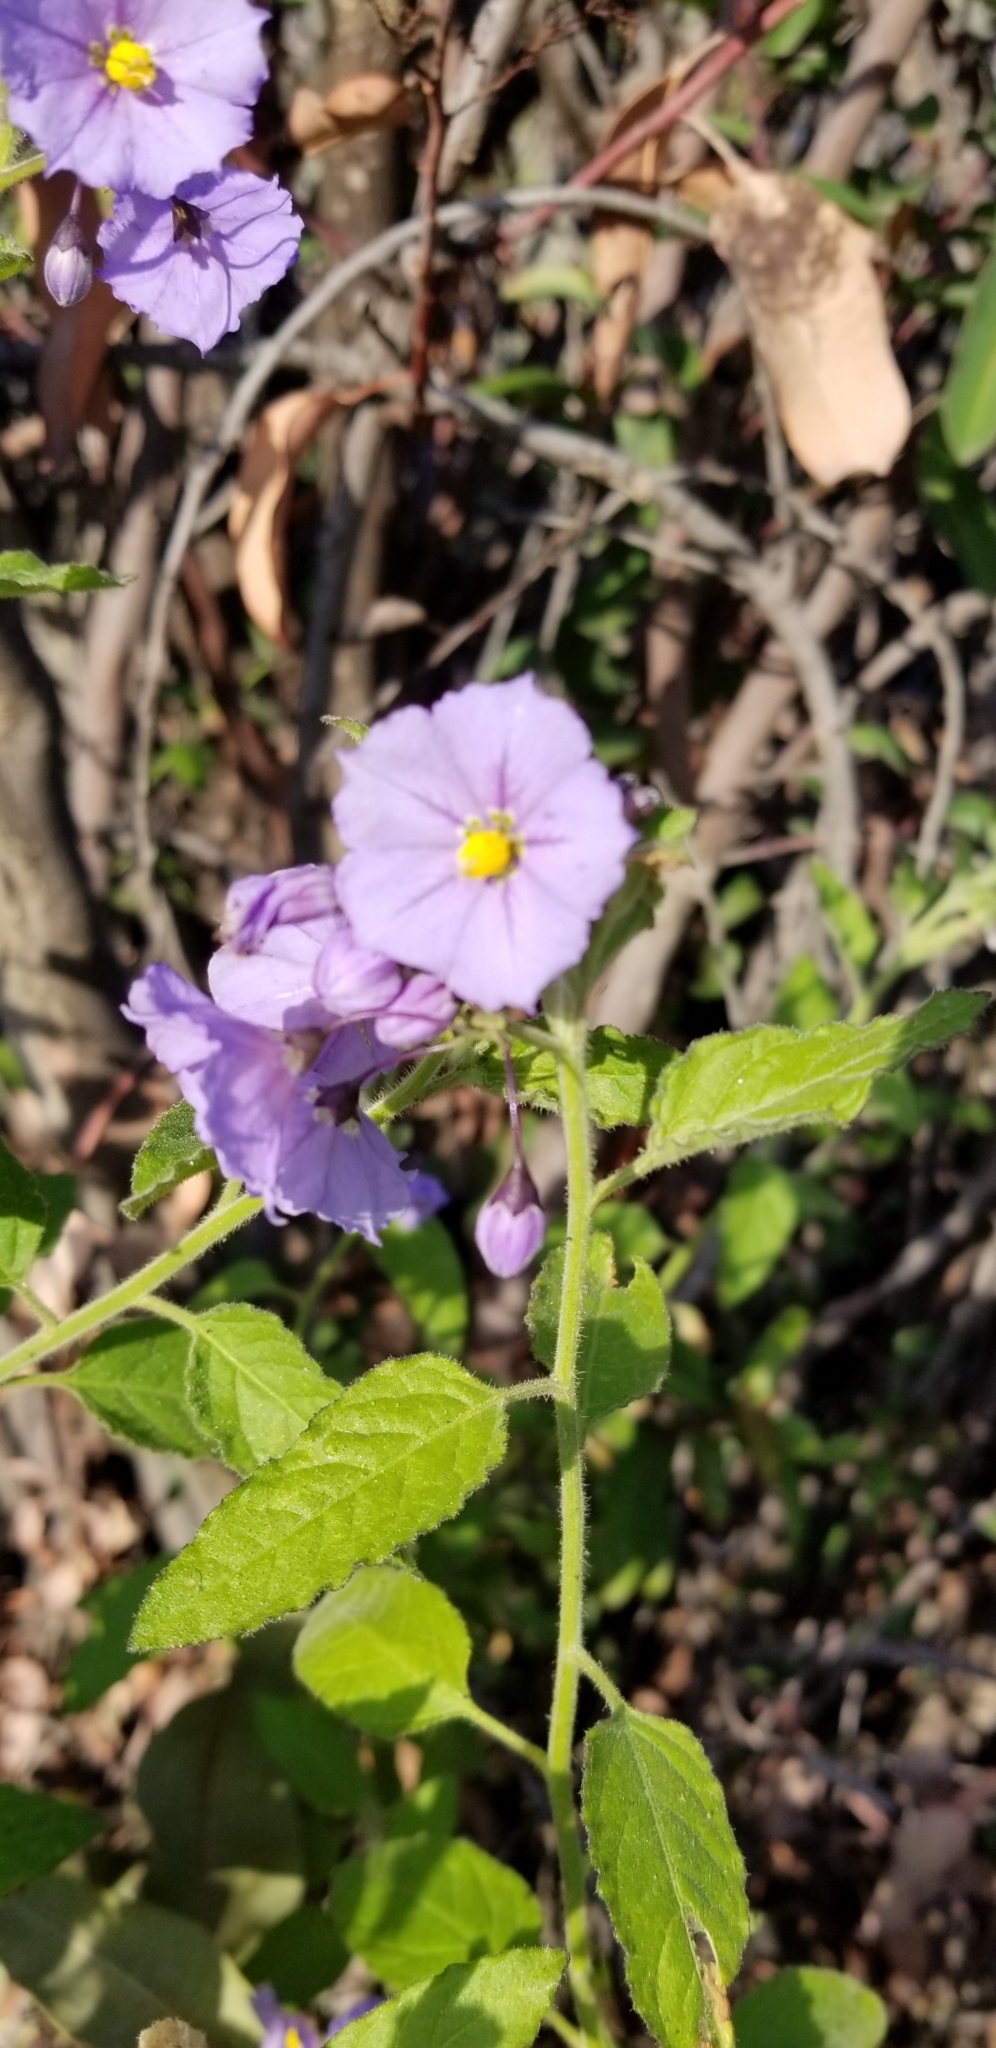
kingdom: Plantae
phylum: Tracheophyta
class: Magnoliopsida
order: Solanales
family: Solanaceae
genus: Solanum
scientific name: Solanum umbelliferum
